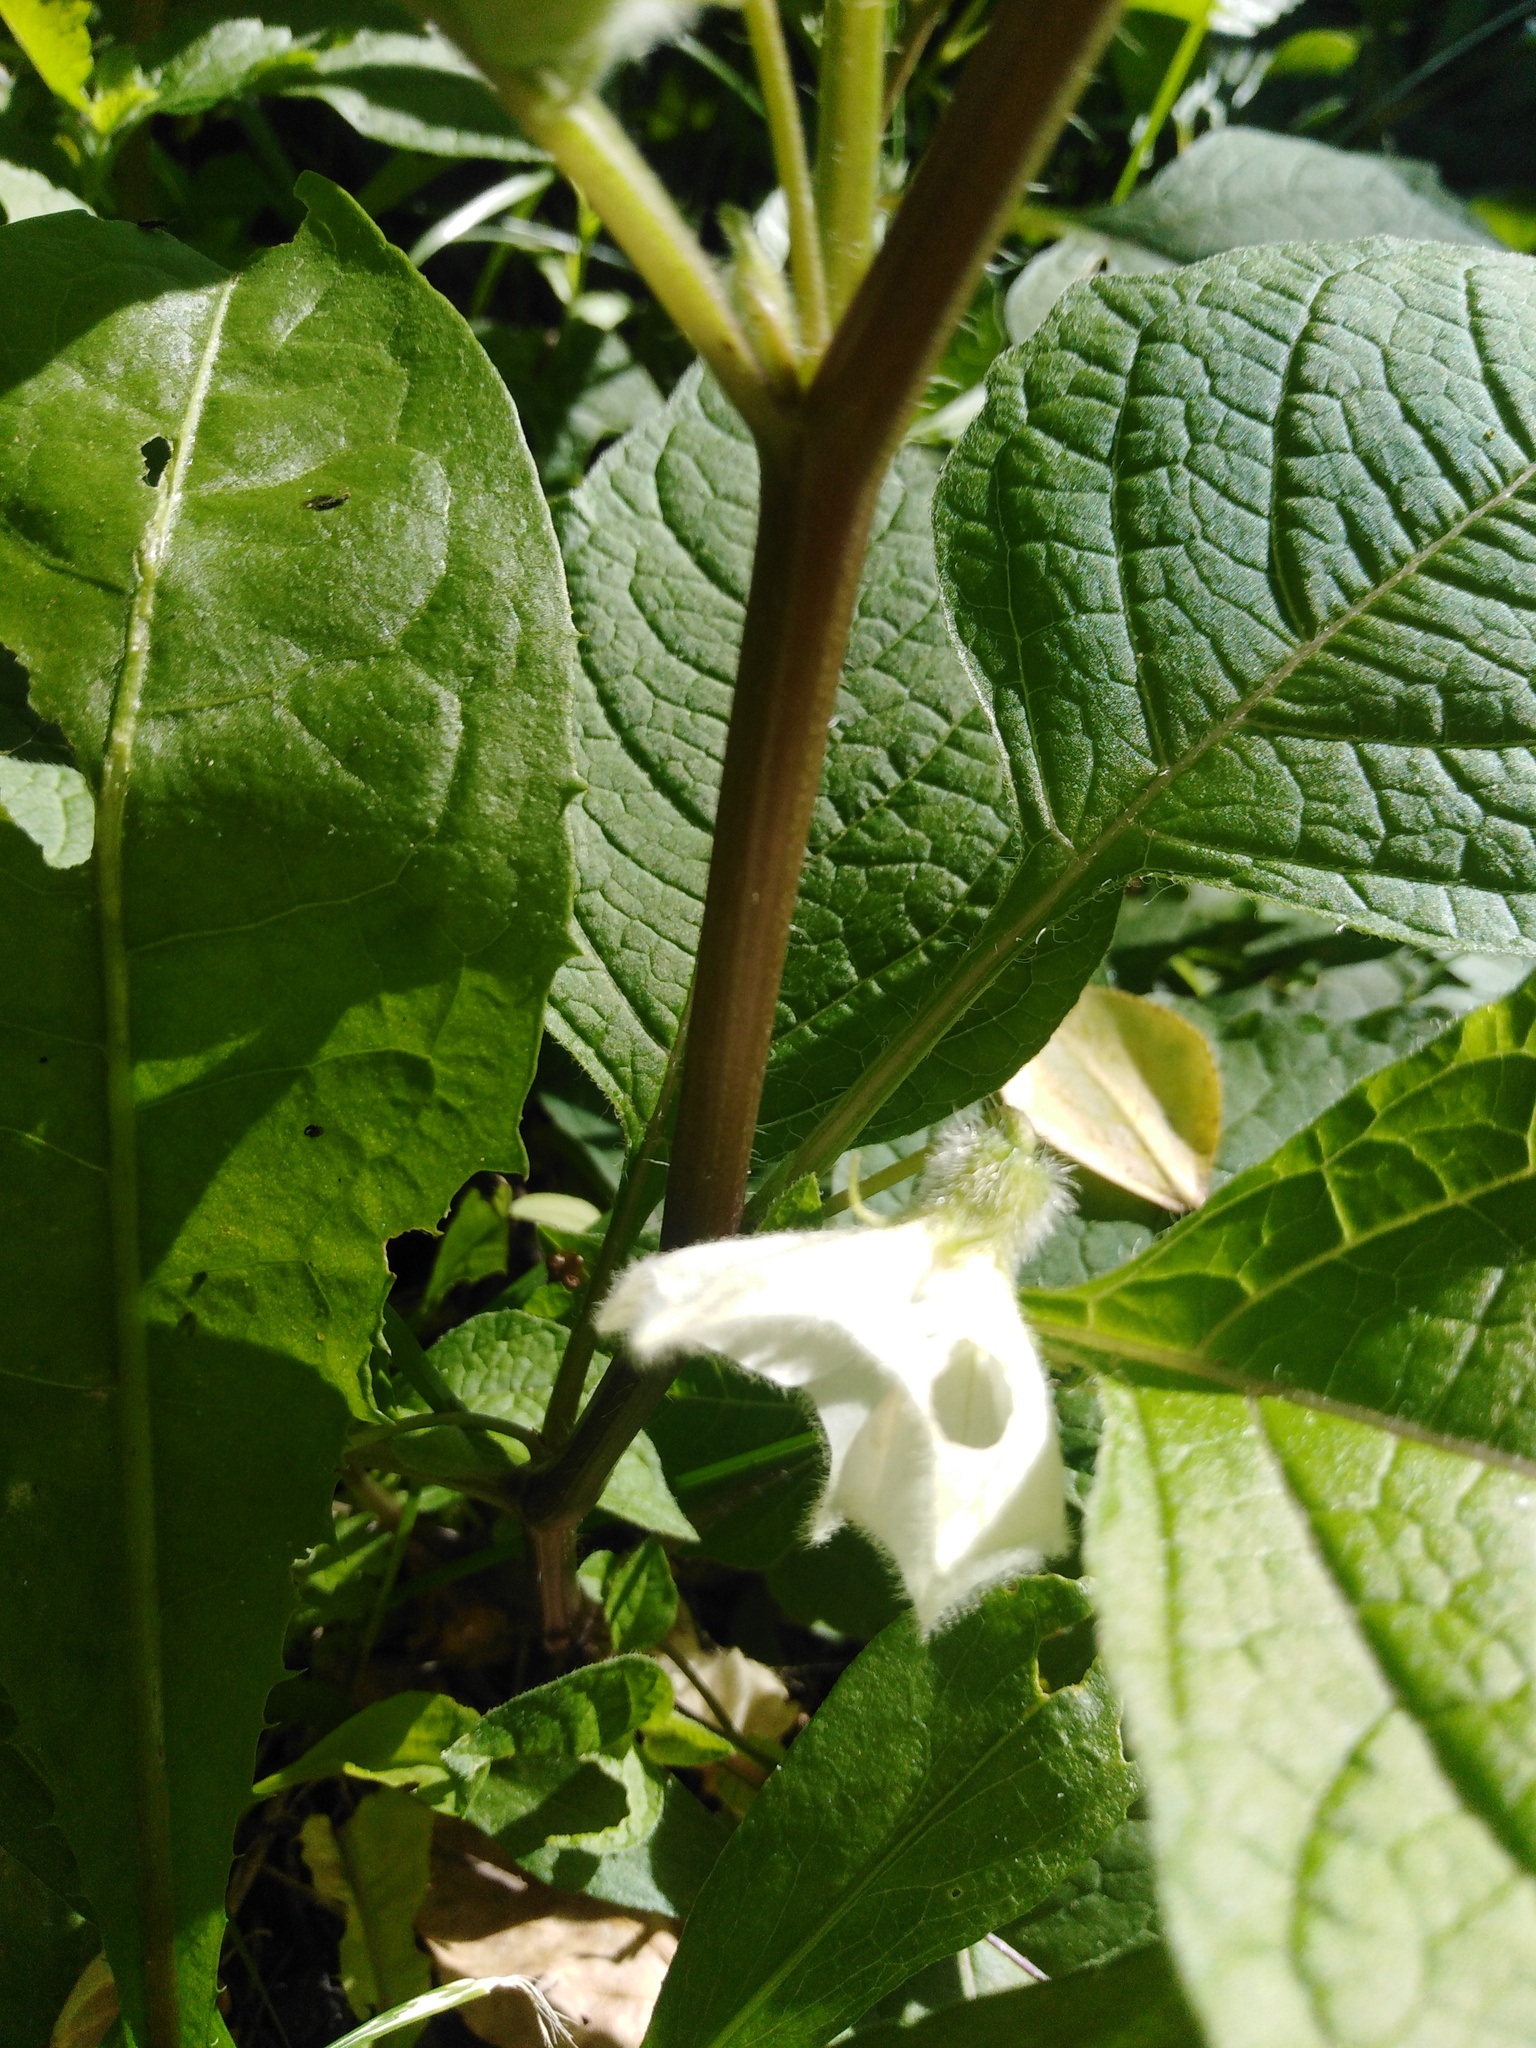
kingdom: Plantae
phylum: Tracheophyta
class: Magnoliopsida
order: Solanales
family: Solanaceae
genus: Alkekengi
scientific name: Alkekengi officinarum
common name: Japanese-lantern
